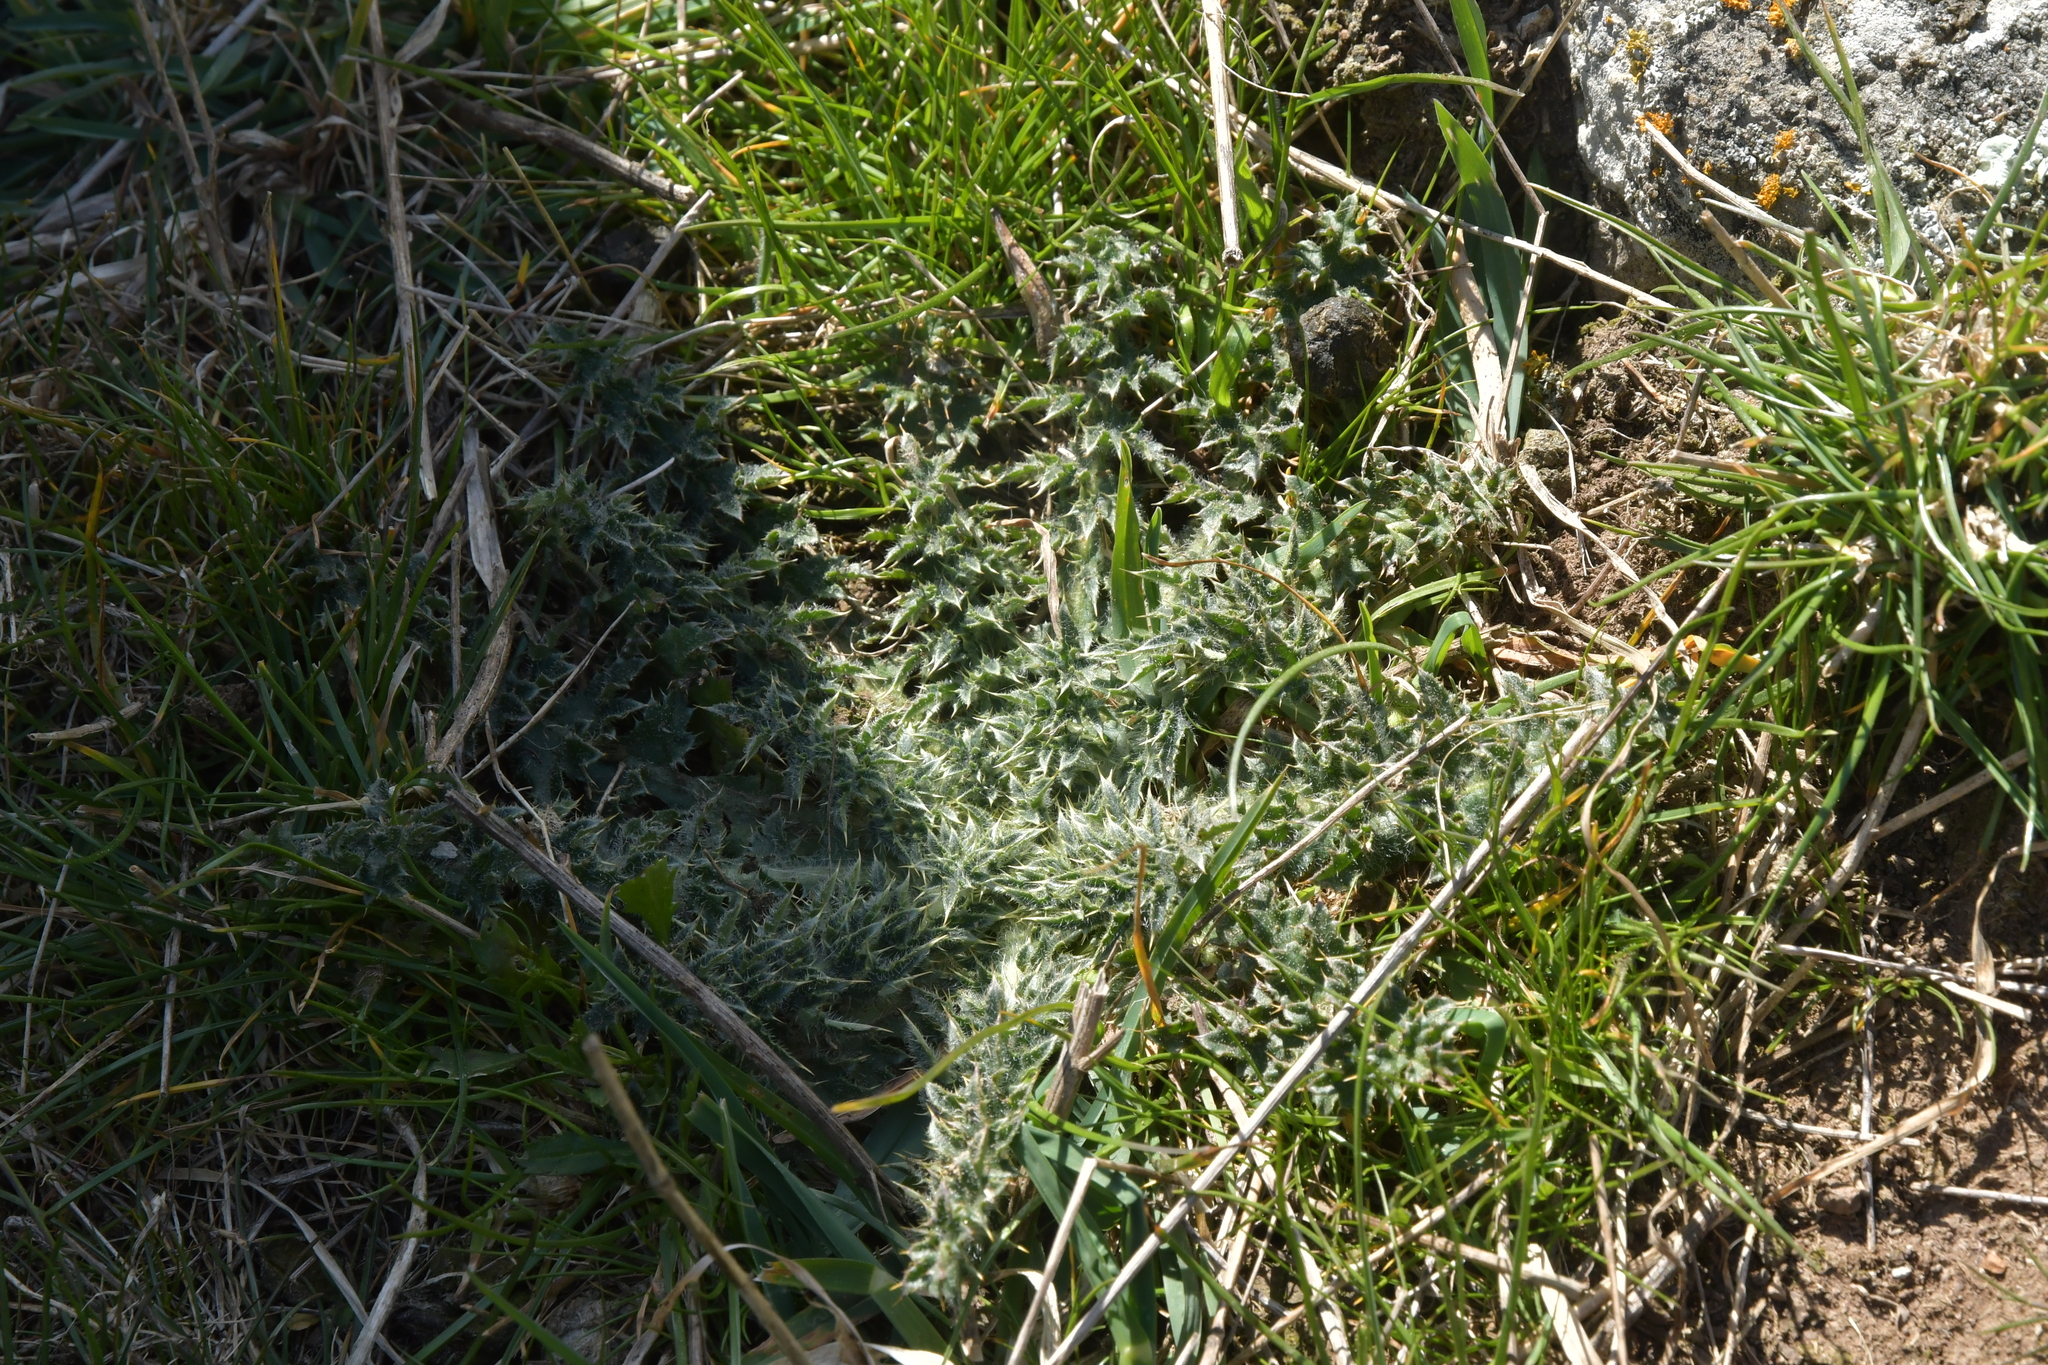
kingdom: Plantae
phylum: Tracheophyta
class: Magnoliopsida
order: Asterales
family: Asteraceae
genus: Carduus
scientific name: Carduus nutans
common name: Musk thistle
